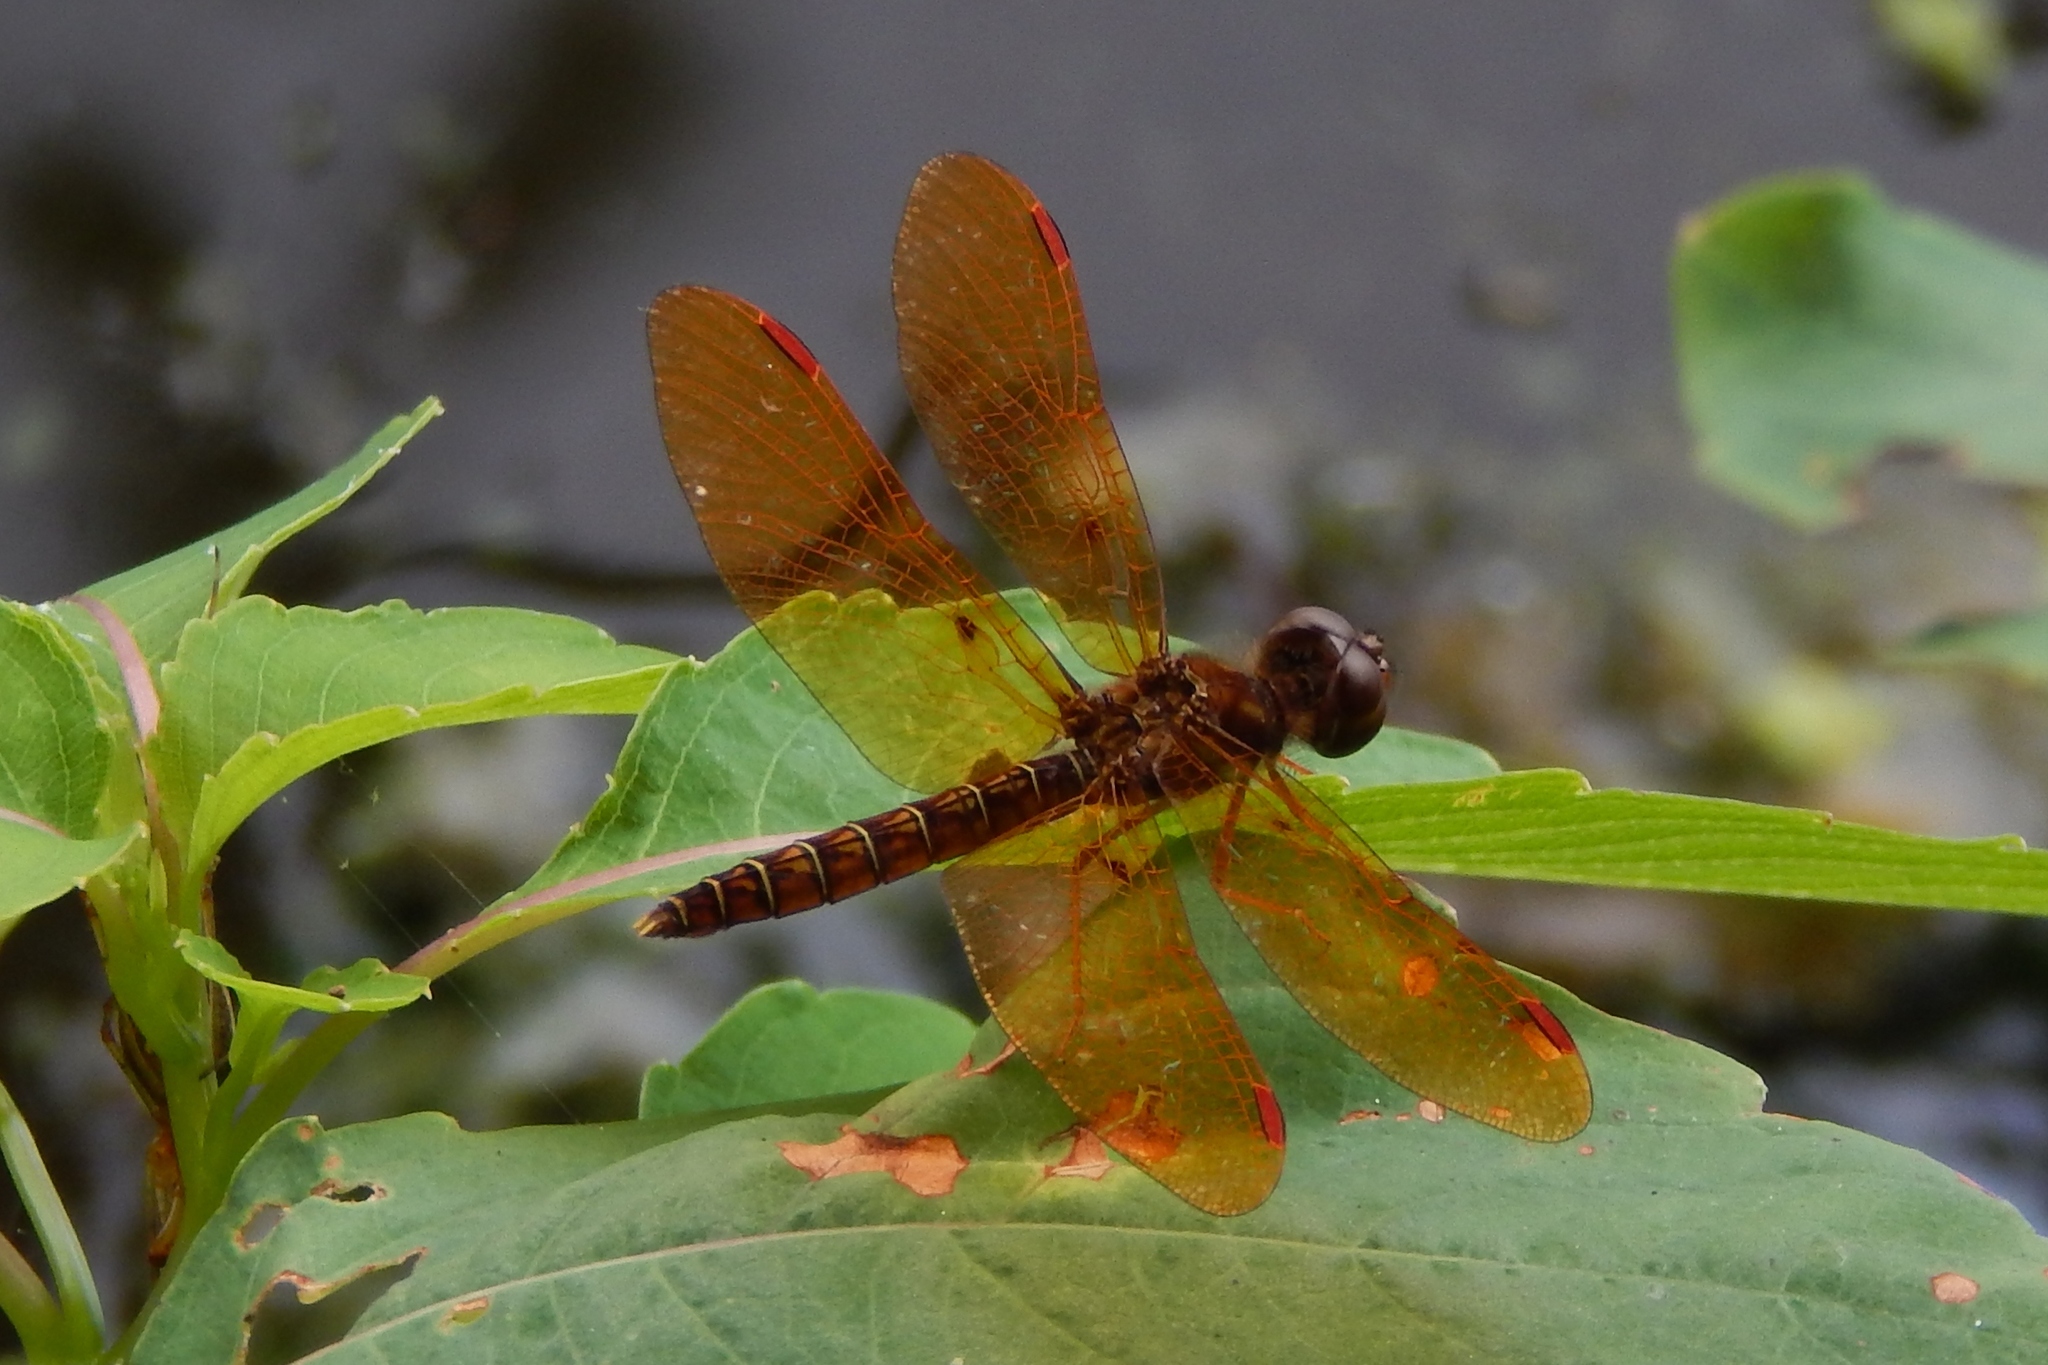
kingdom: Animalia
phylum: Arthropoda
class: Insecta
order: Odonata
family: Libellulidae
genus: Perithemis
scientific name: Perithemis tenera
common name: Eastern amberwing
